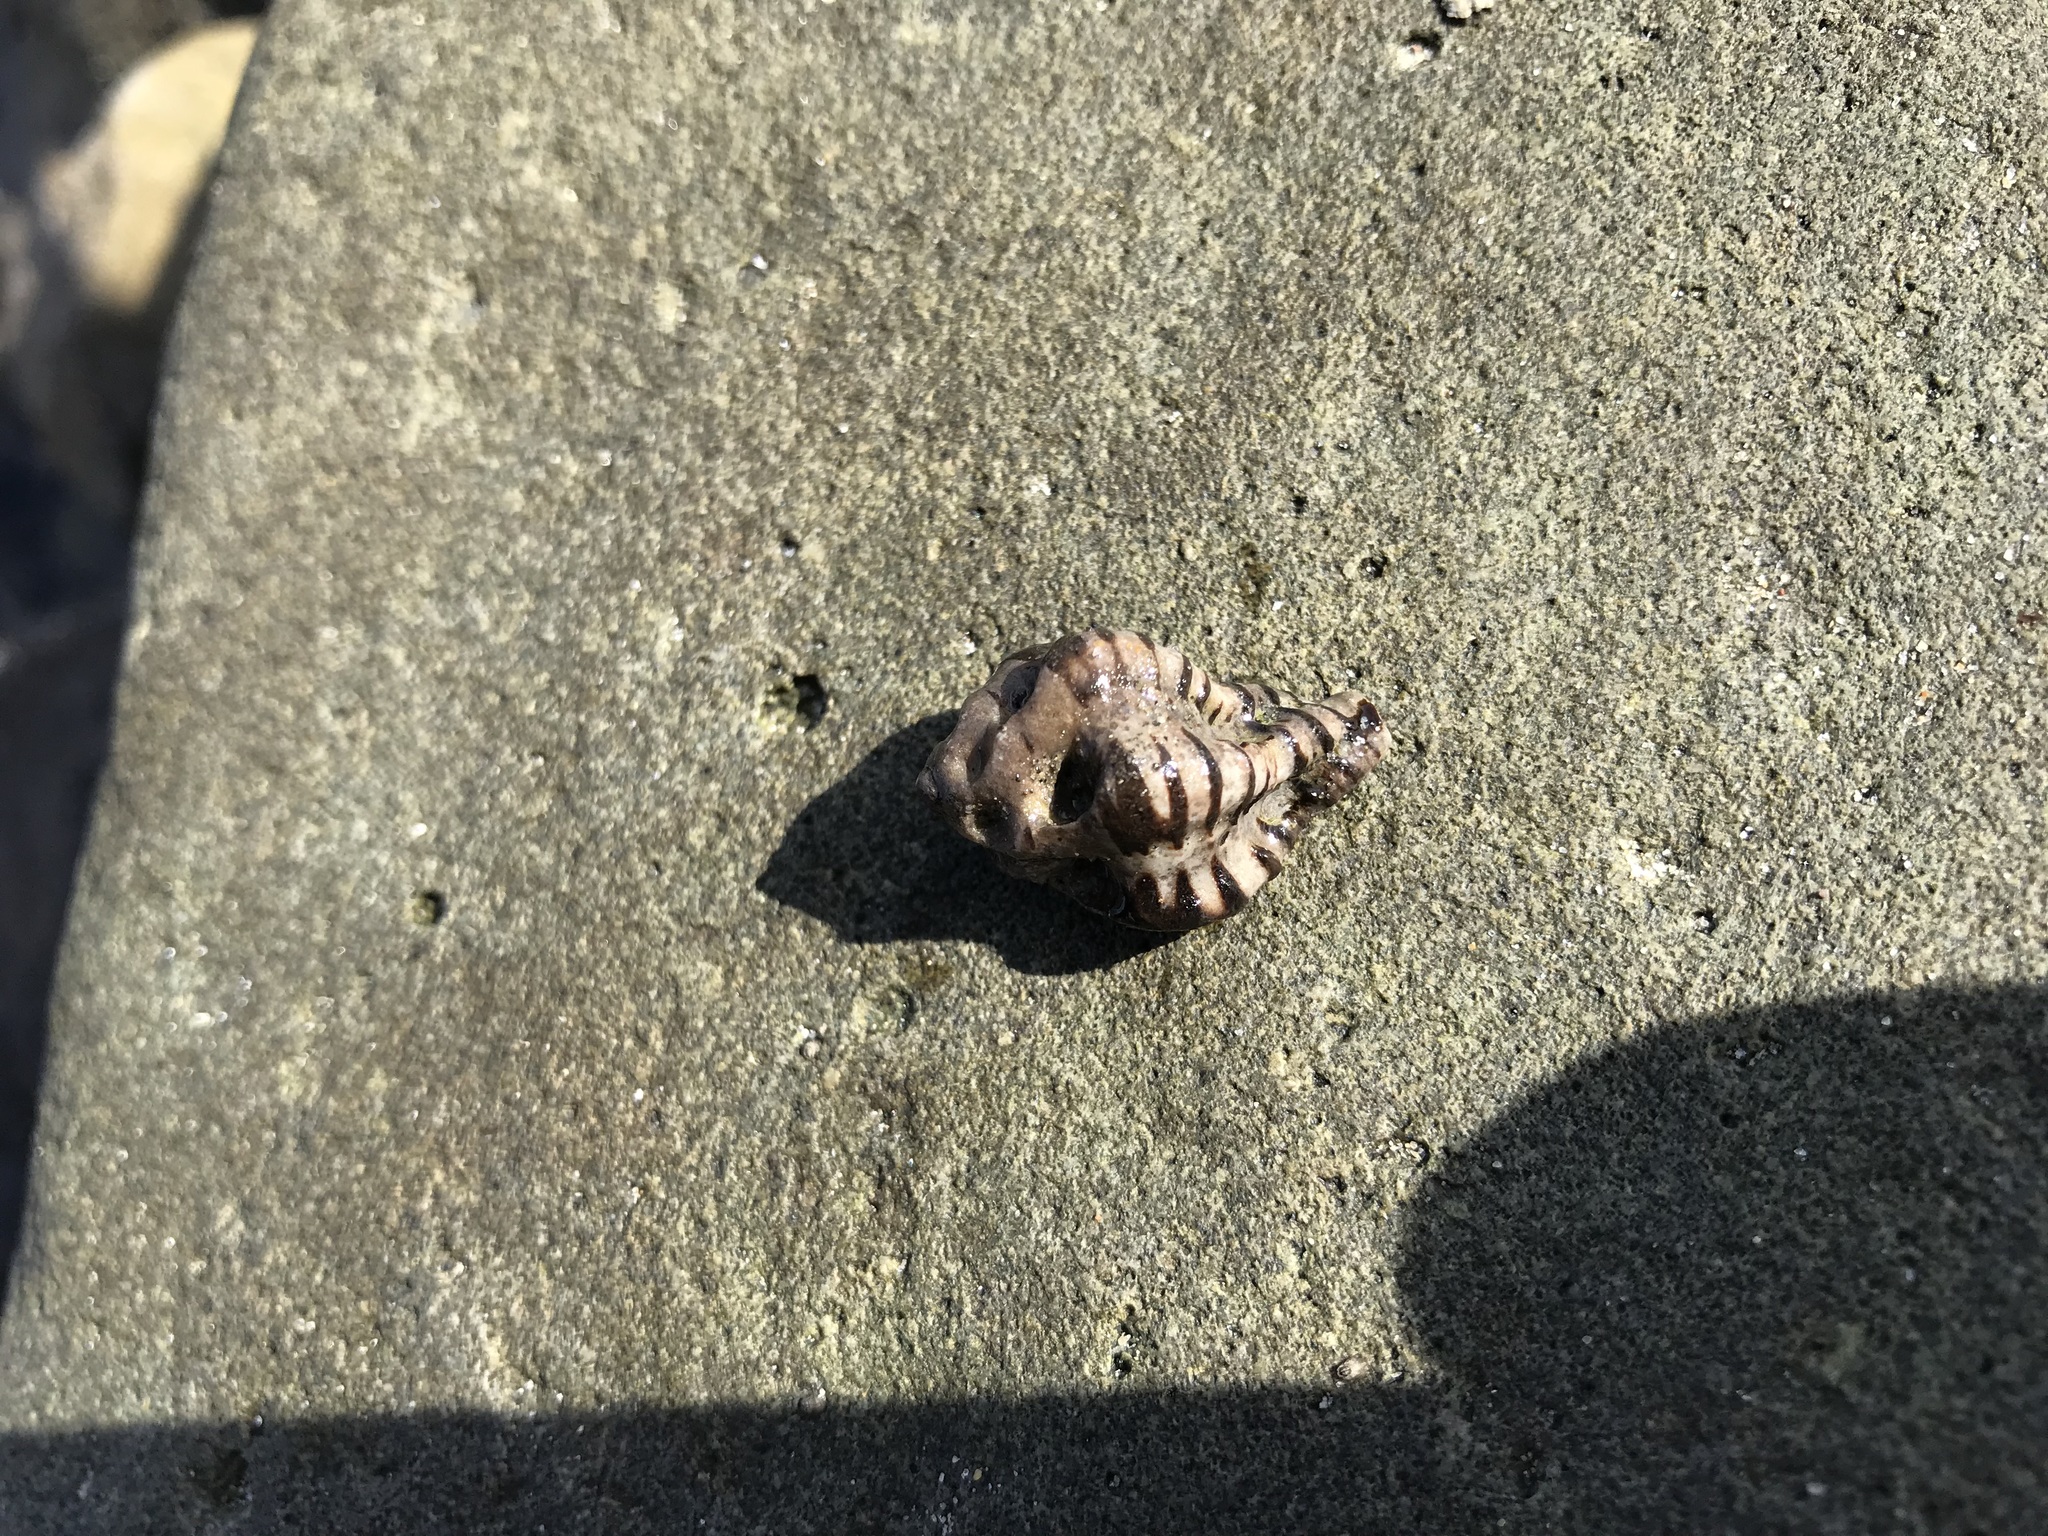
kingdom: Animalia
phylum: Mollusca
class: Gastropoda
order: Neogastropoda
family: Muricidae
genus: Maxwellia
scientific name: Maxwellia gemma
